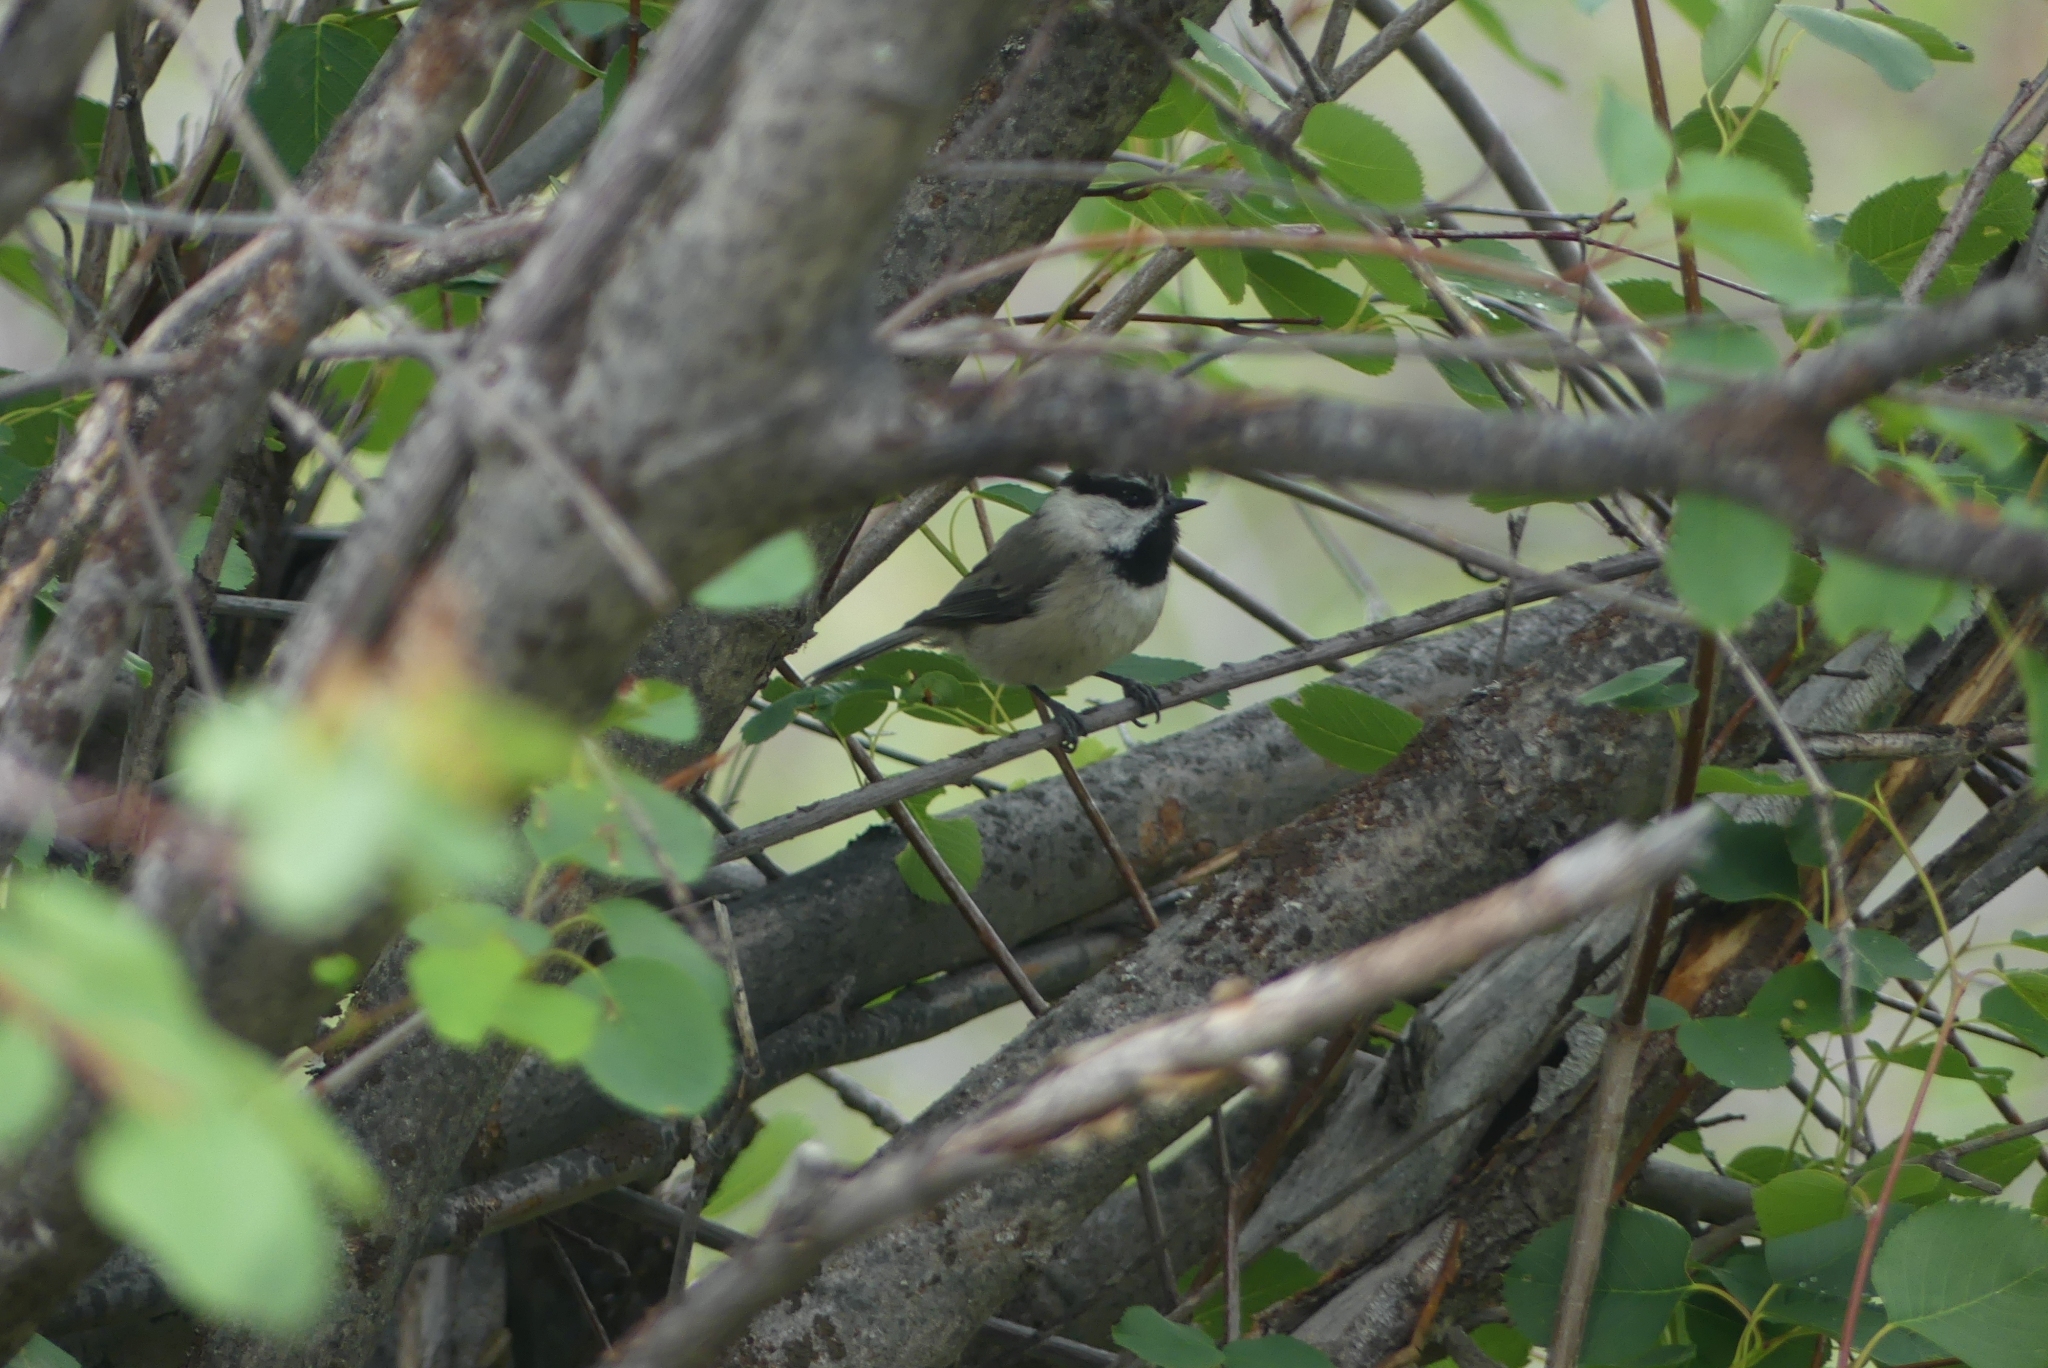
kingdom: Animalia
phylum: Chordata
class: Aves
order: Passeriformes
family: Paridae
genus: Poecile
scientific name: Poecile gambeli
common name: Mountain chickadee
